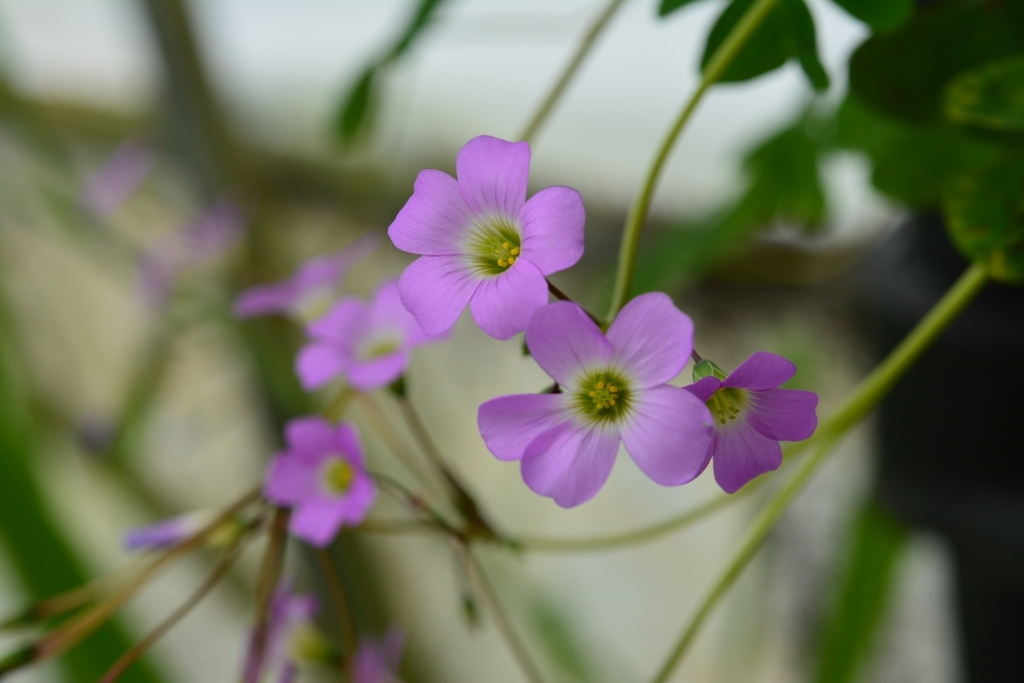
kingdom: Plantae
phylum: Tracheophyta
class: Magnoliopsida
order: Oxalidales
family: Oxalidaceae
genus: Oxalis
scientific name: Oxalis alpina
